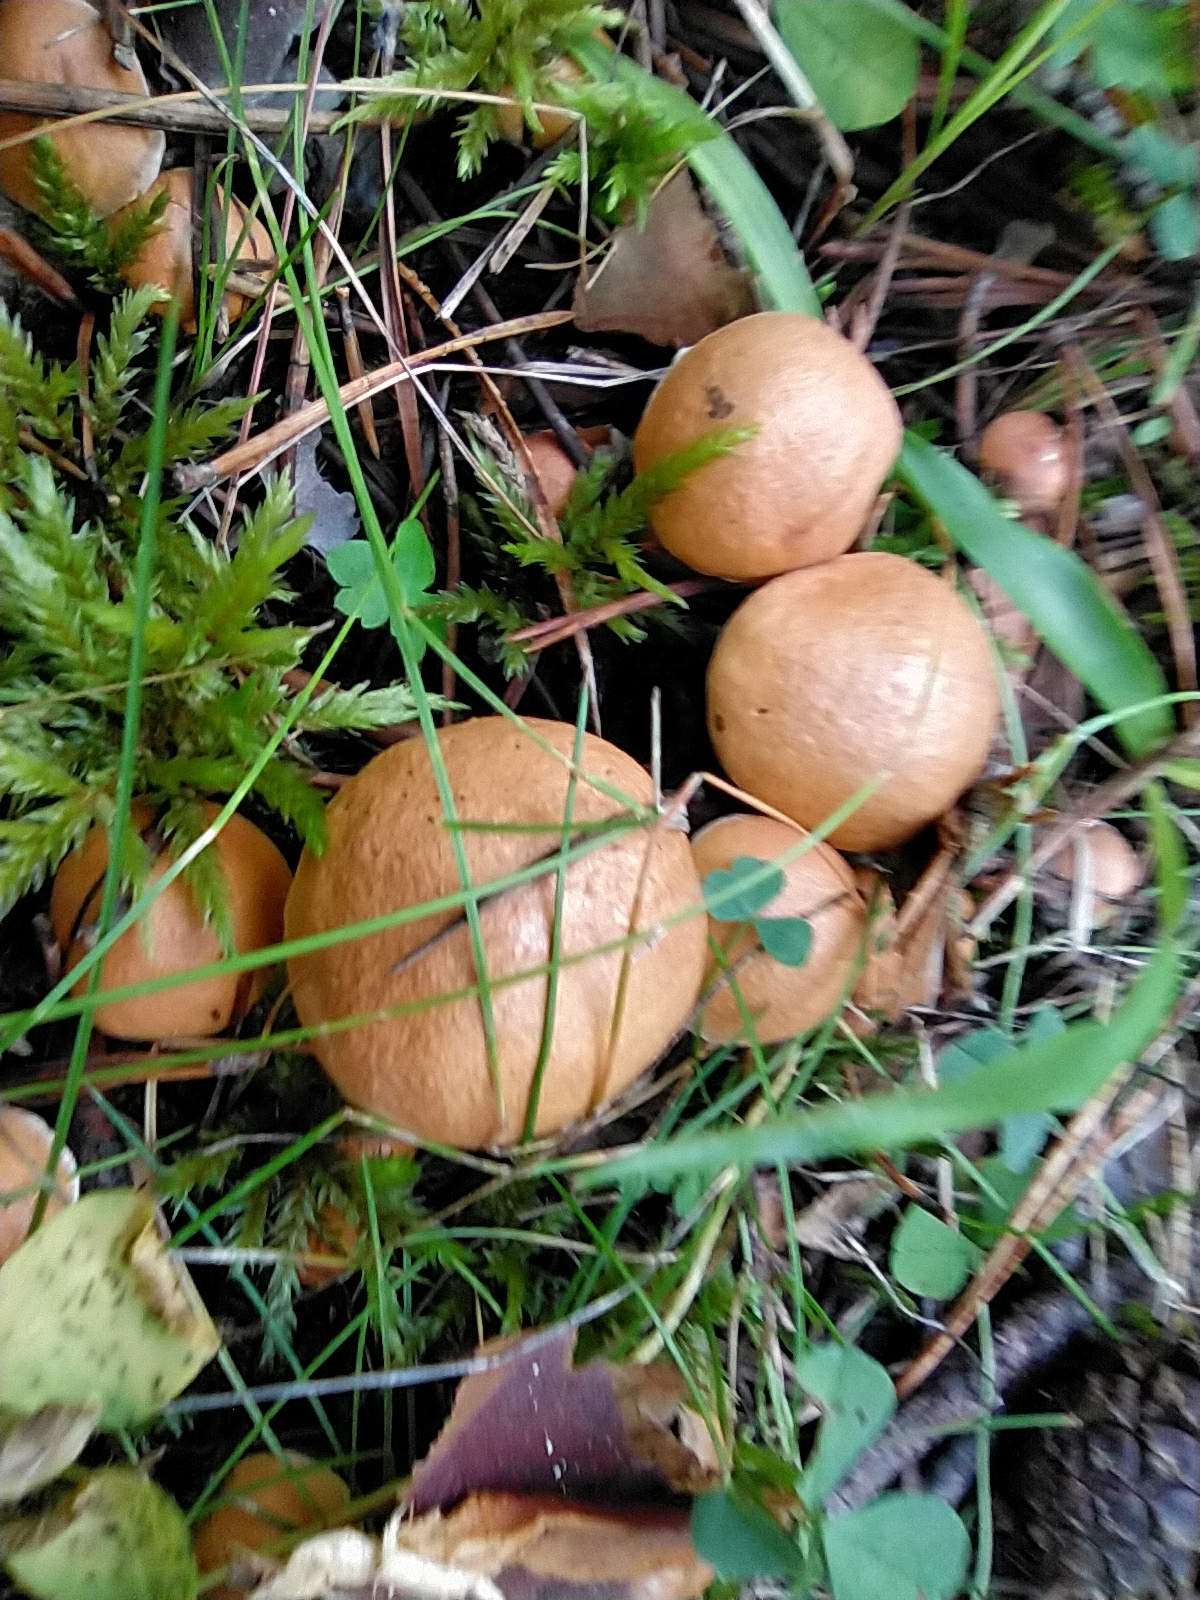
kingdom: Fungi
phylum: Basidiomycota
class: Agaricomycetes
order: Boletales
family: Suillaceae
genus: Suillus
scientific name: Suillus bovinus
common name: Bovine bolete
